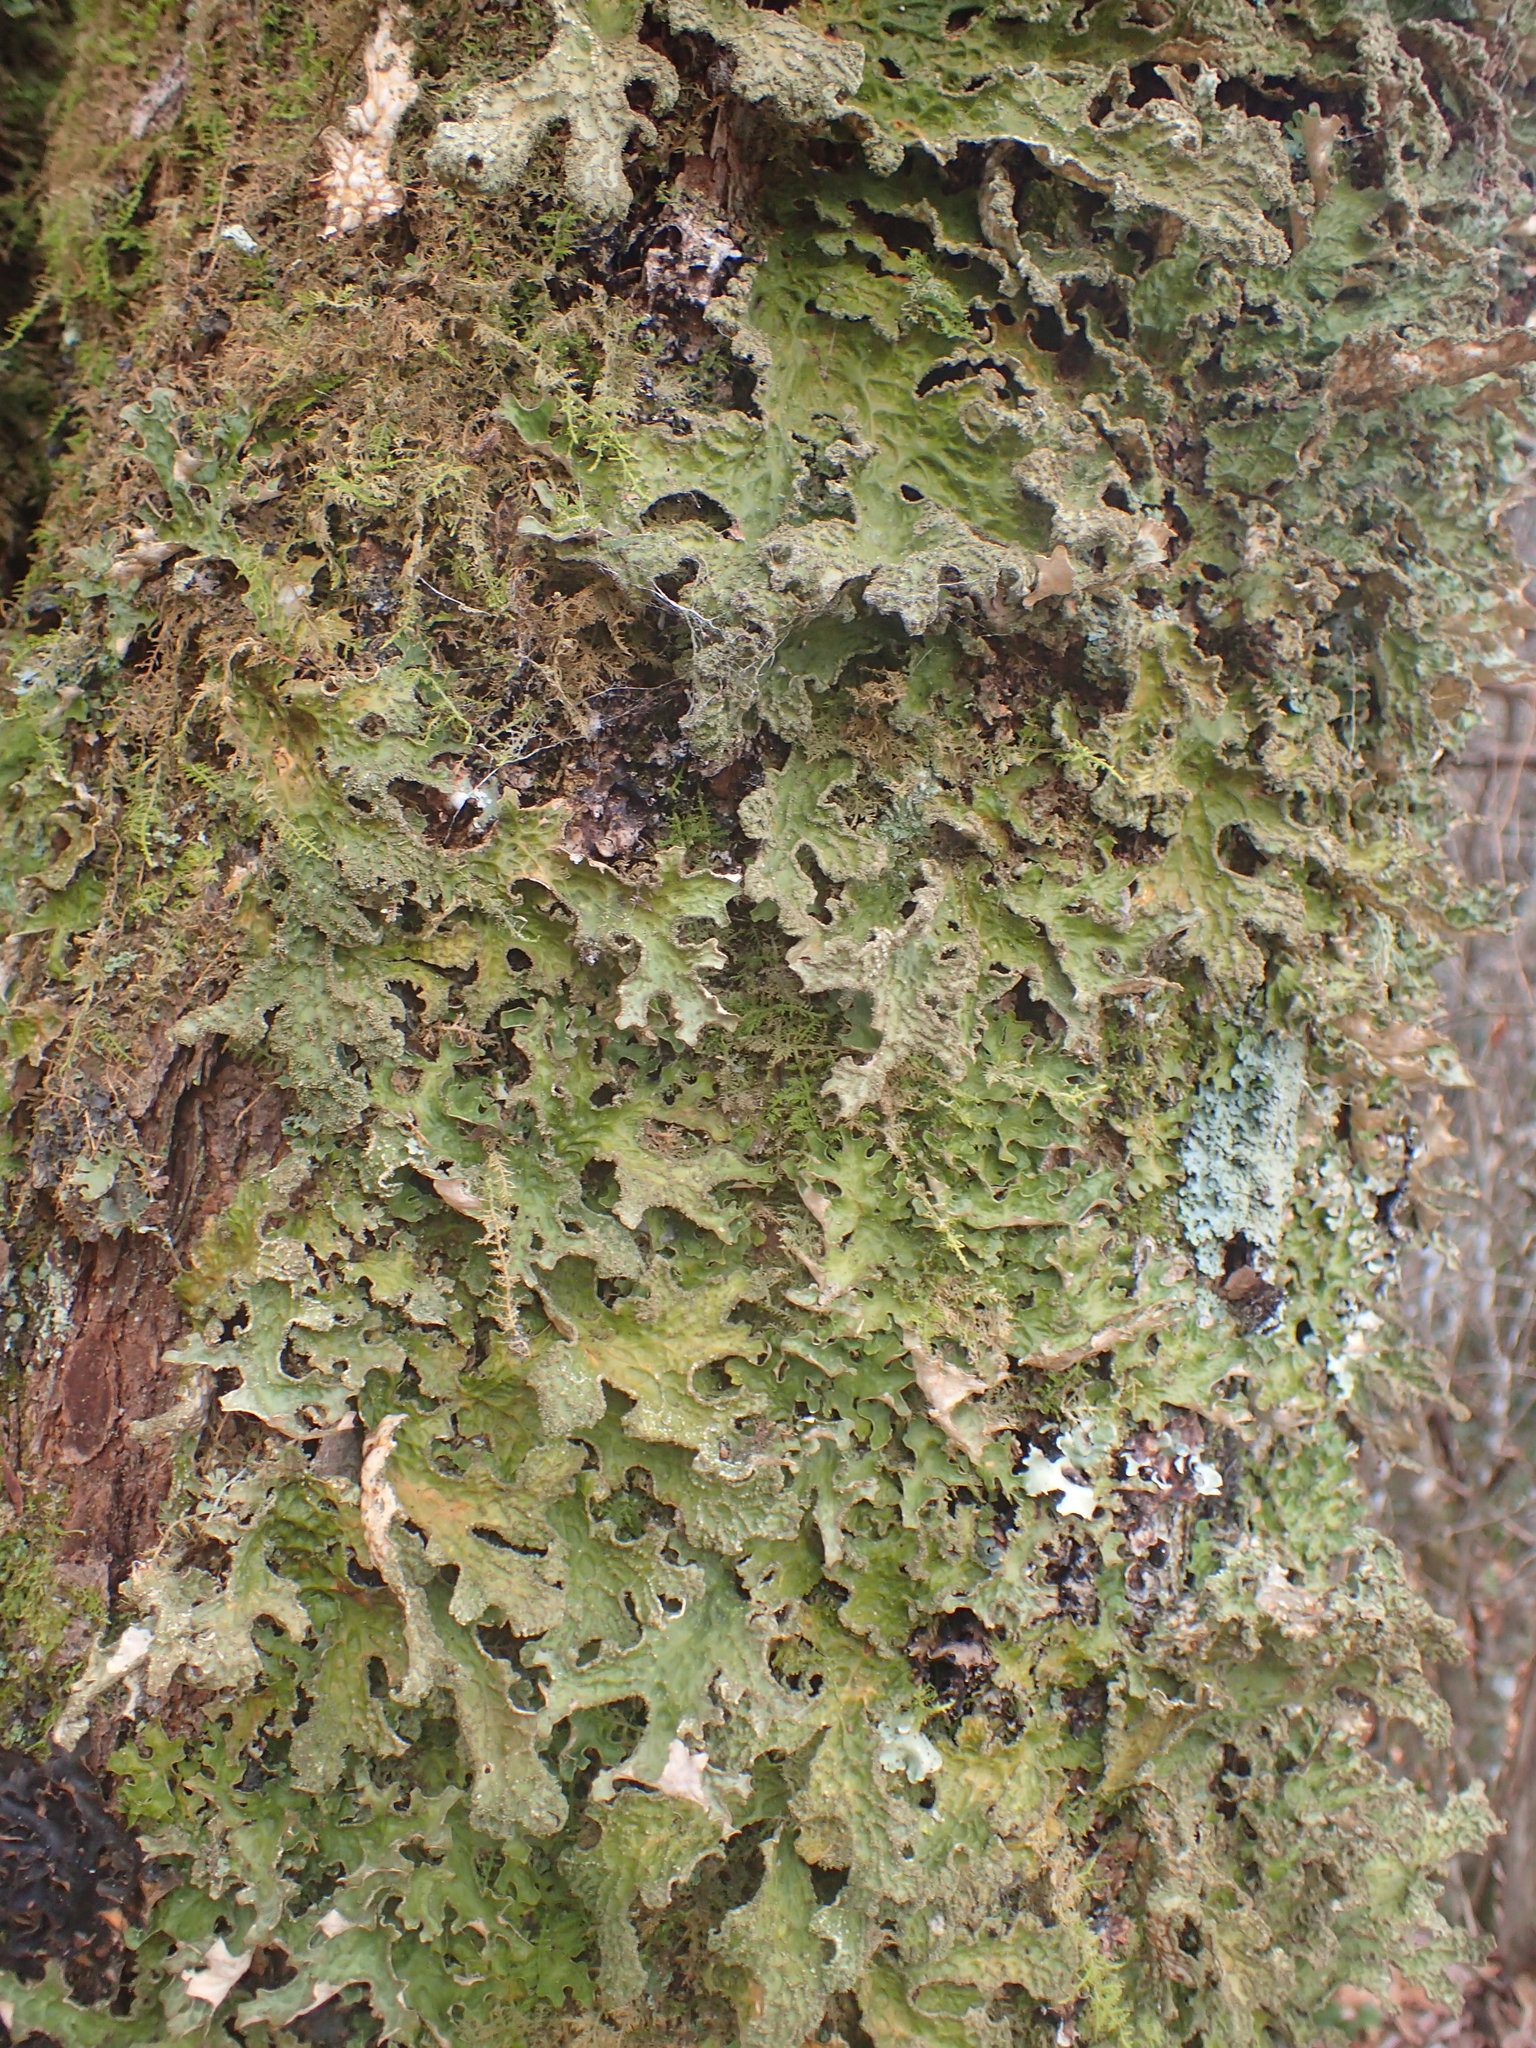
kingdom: Fungi
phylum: Ascomycota
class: Lecanoromycetes
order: Peltigerales
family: Lobariaceae
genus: Lobaria
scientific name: Lobaria pulmonaria
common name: Lungwort
